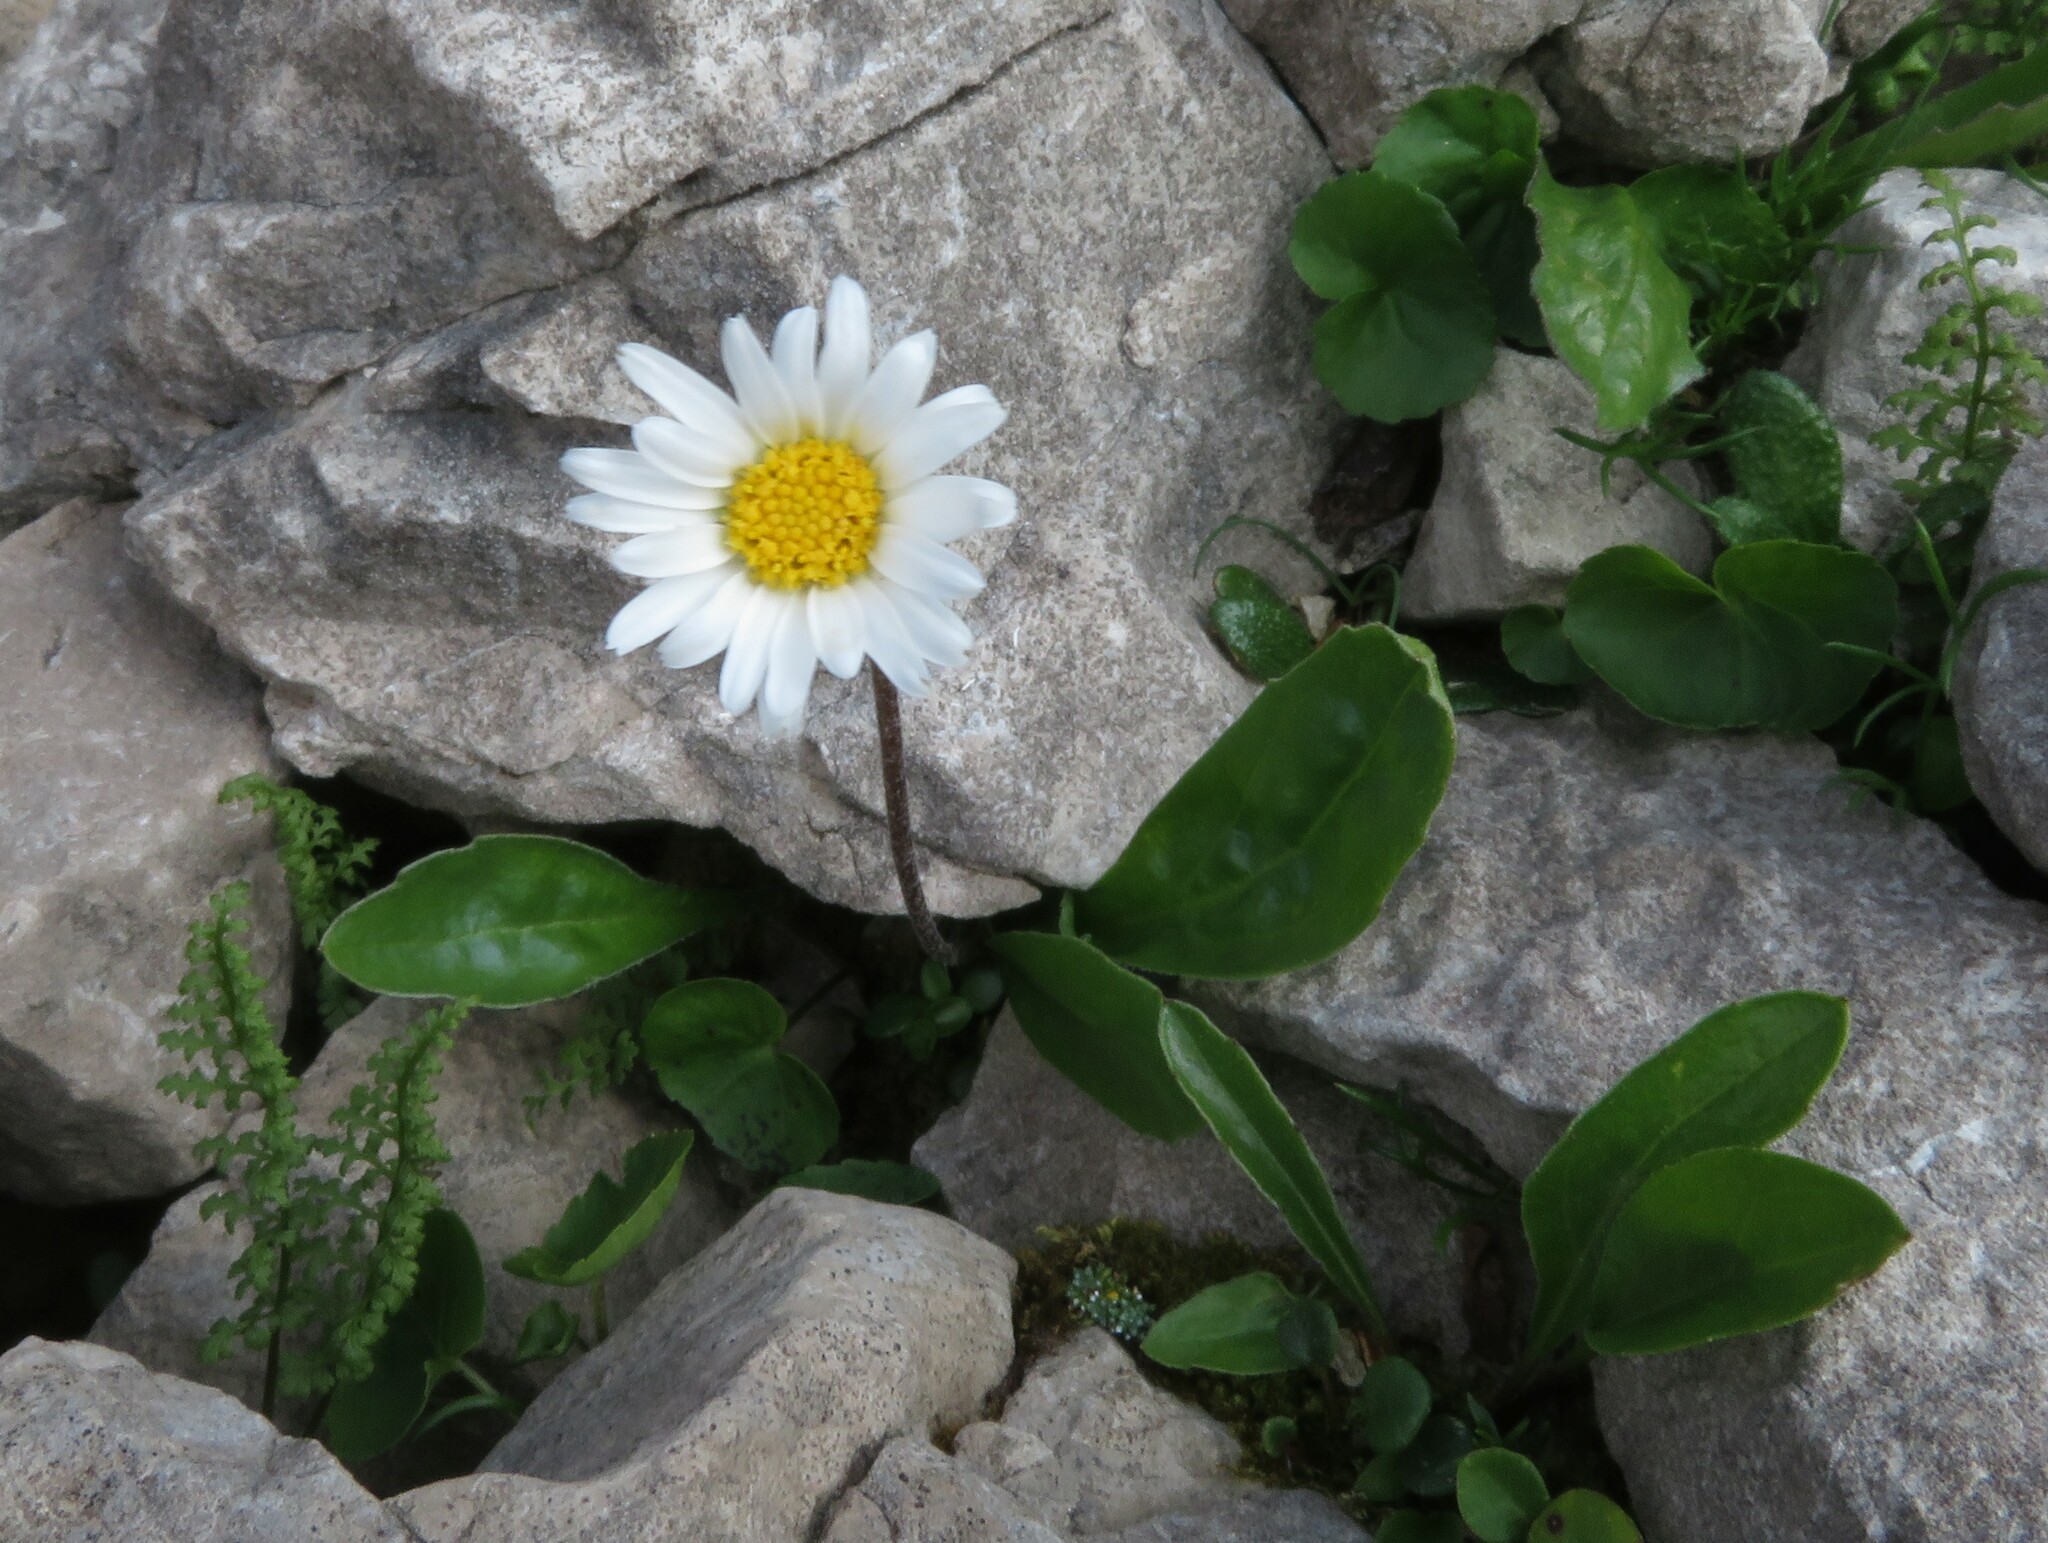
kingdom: Plantae
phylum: Tracheophyta
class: Magnoliopsida
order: Asterales
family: Asteraceae
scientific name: Asteraceae
